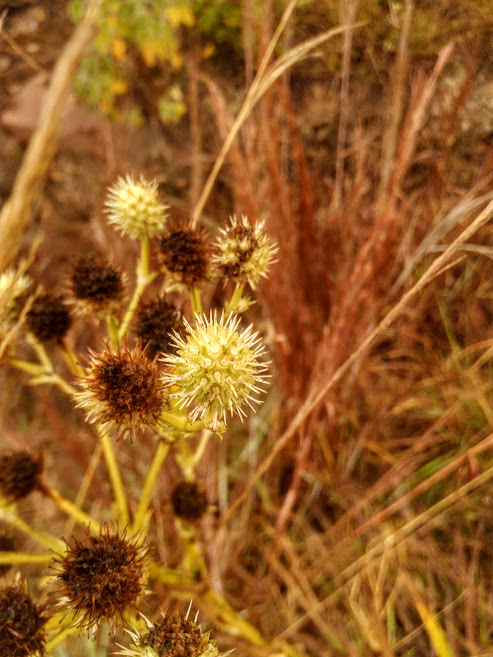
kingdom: Plantae
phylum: Tracheophyta
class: Magnoliopsida
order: Apiales
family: Apiaceae
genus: Eryngium
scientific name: Eryngium humboldtii
